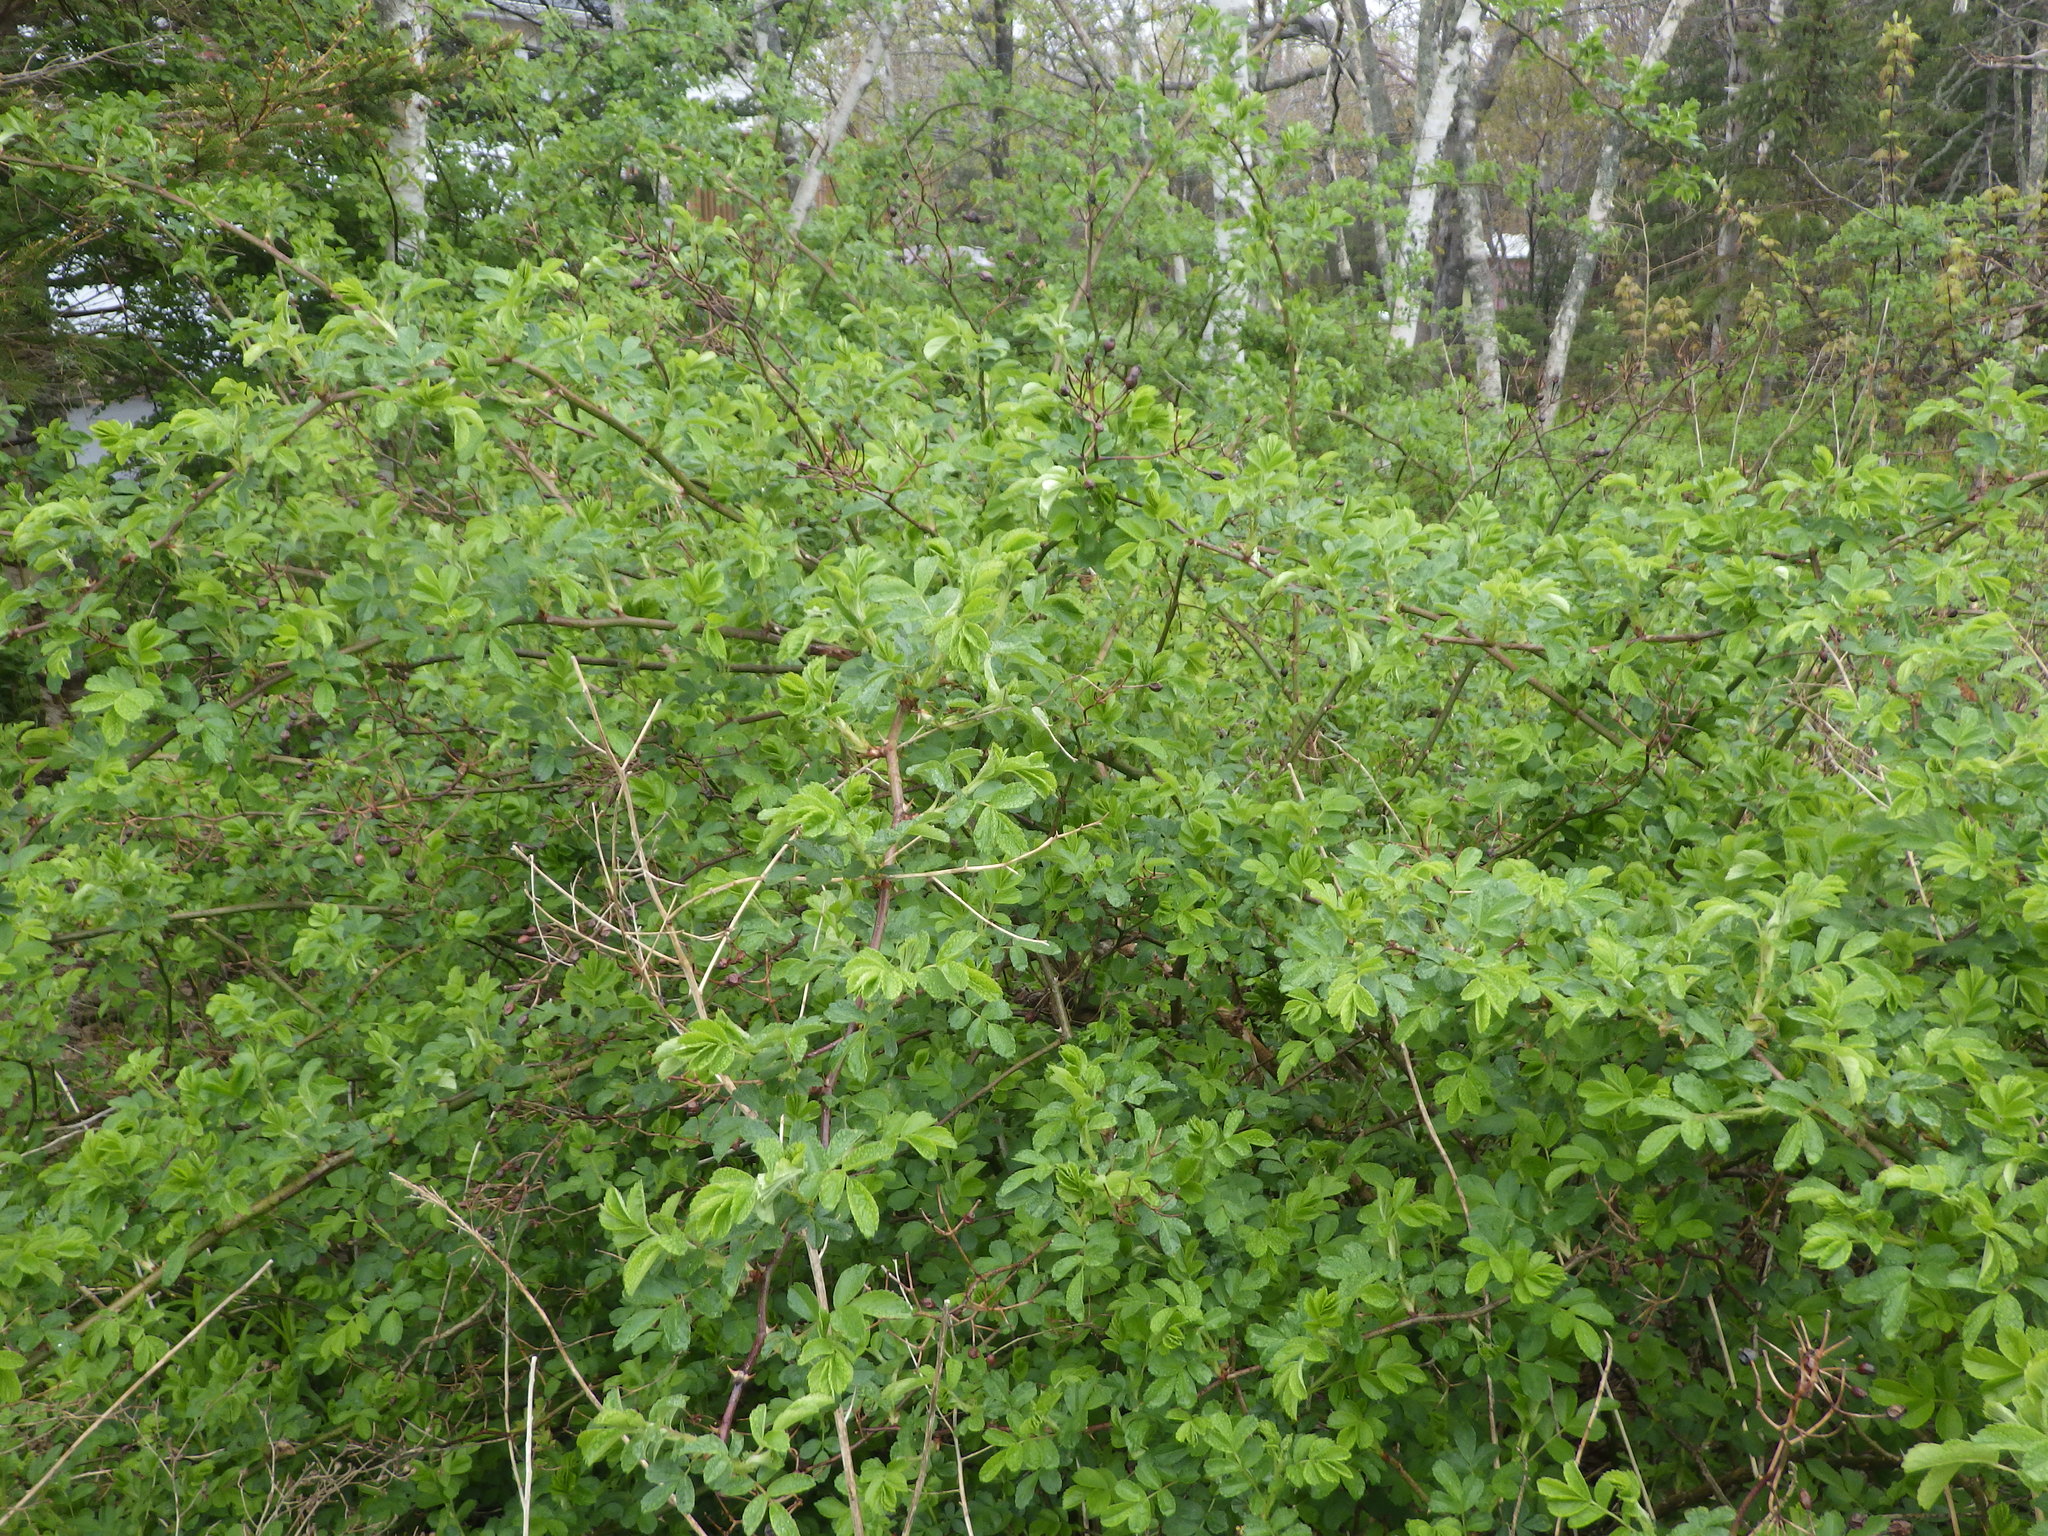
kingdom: Plantae
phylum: Tracheophyta
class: Magnoliopsida
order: Rosales
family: Rosaceae
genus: Rosa
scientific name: Rosa multiflora
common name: Multiflora rose
